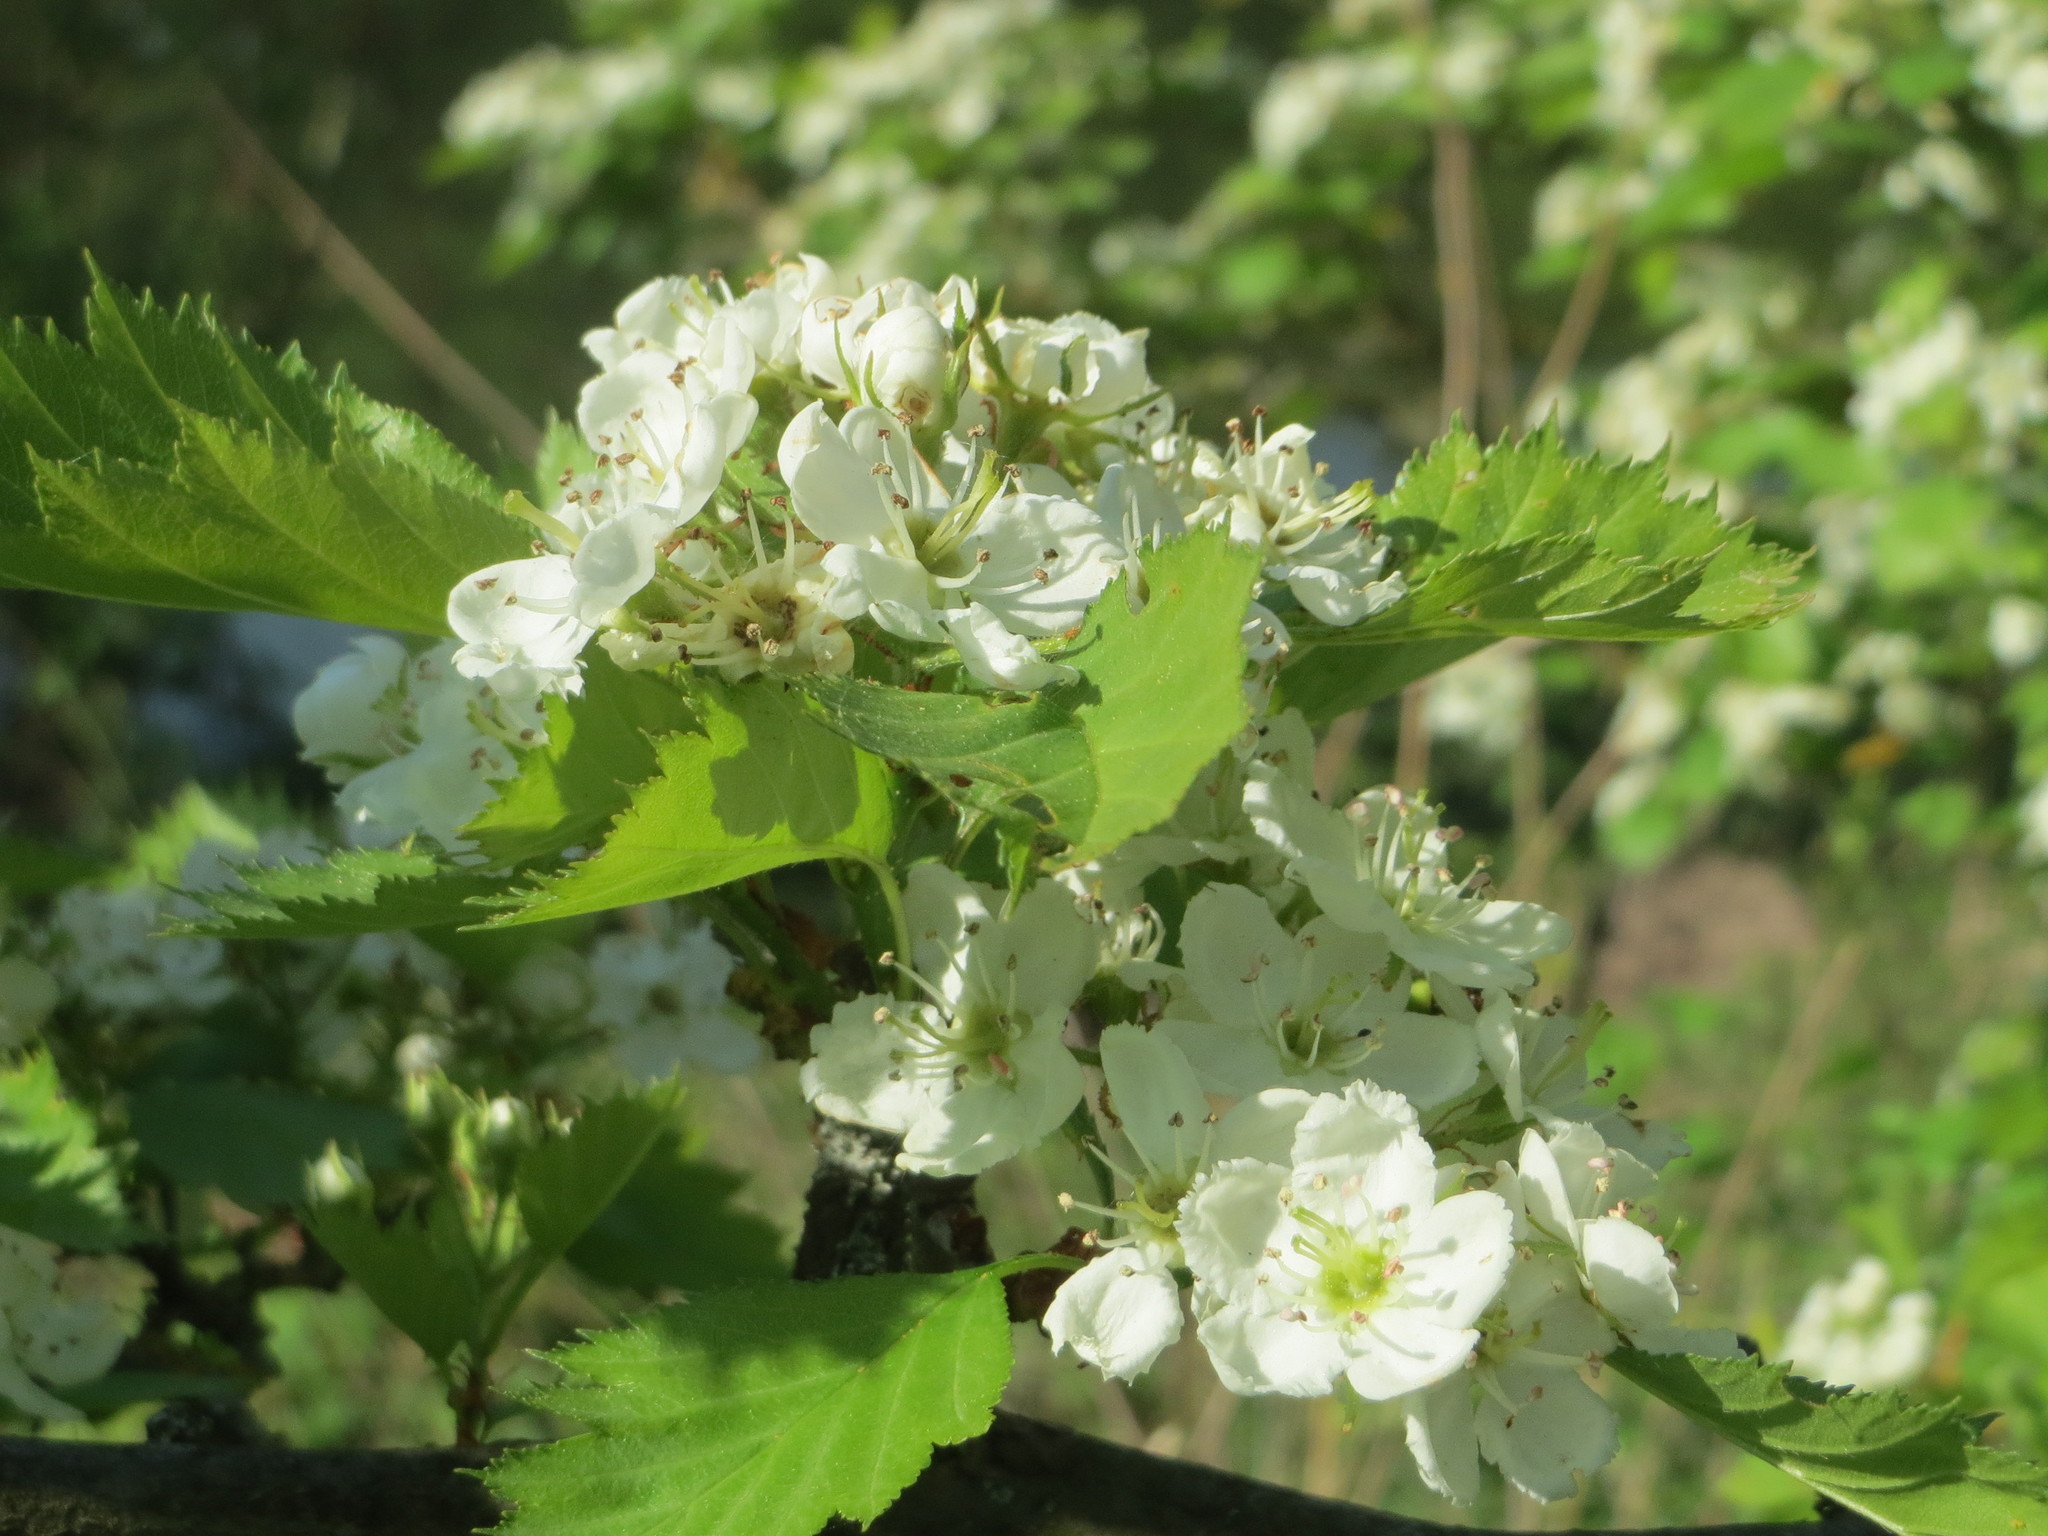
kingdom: Plantae
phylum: Tracheophyta
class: Magnoliopsida
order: Rosales
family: Rosaceae
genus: Torminalis
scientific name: Torminalis glaberrima
